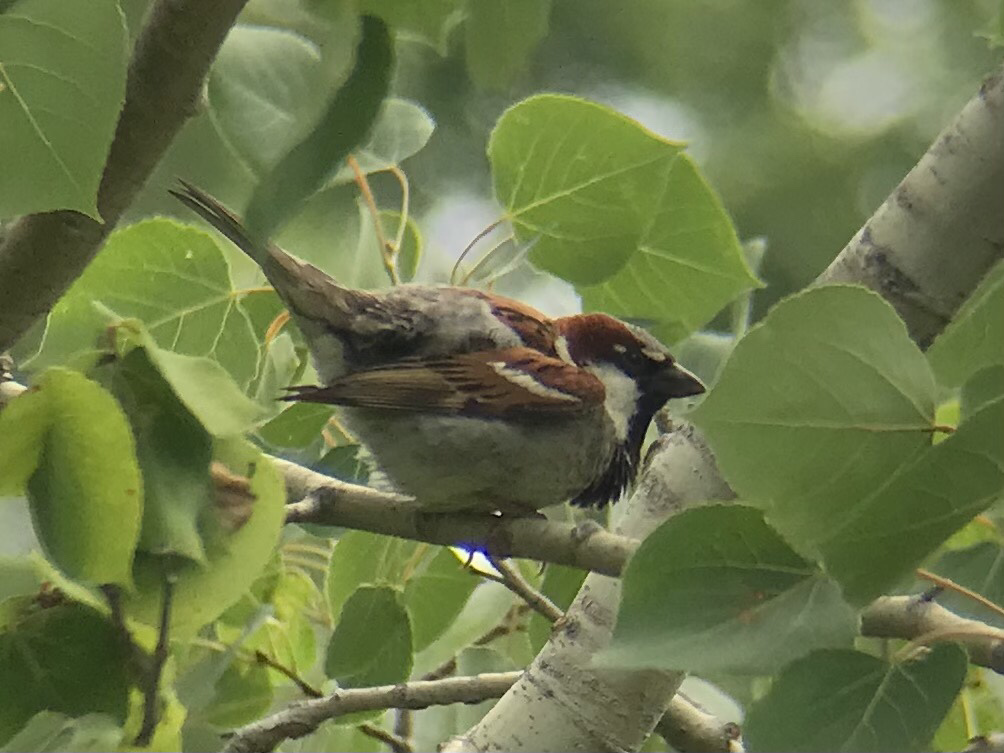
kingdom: Animalia
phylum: Chordata
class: Aves
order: Passeriformes
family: Passeridae
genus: Passer
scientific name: Passer domesticus
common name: House sparrow
